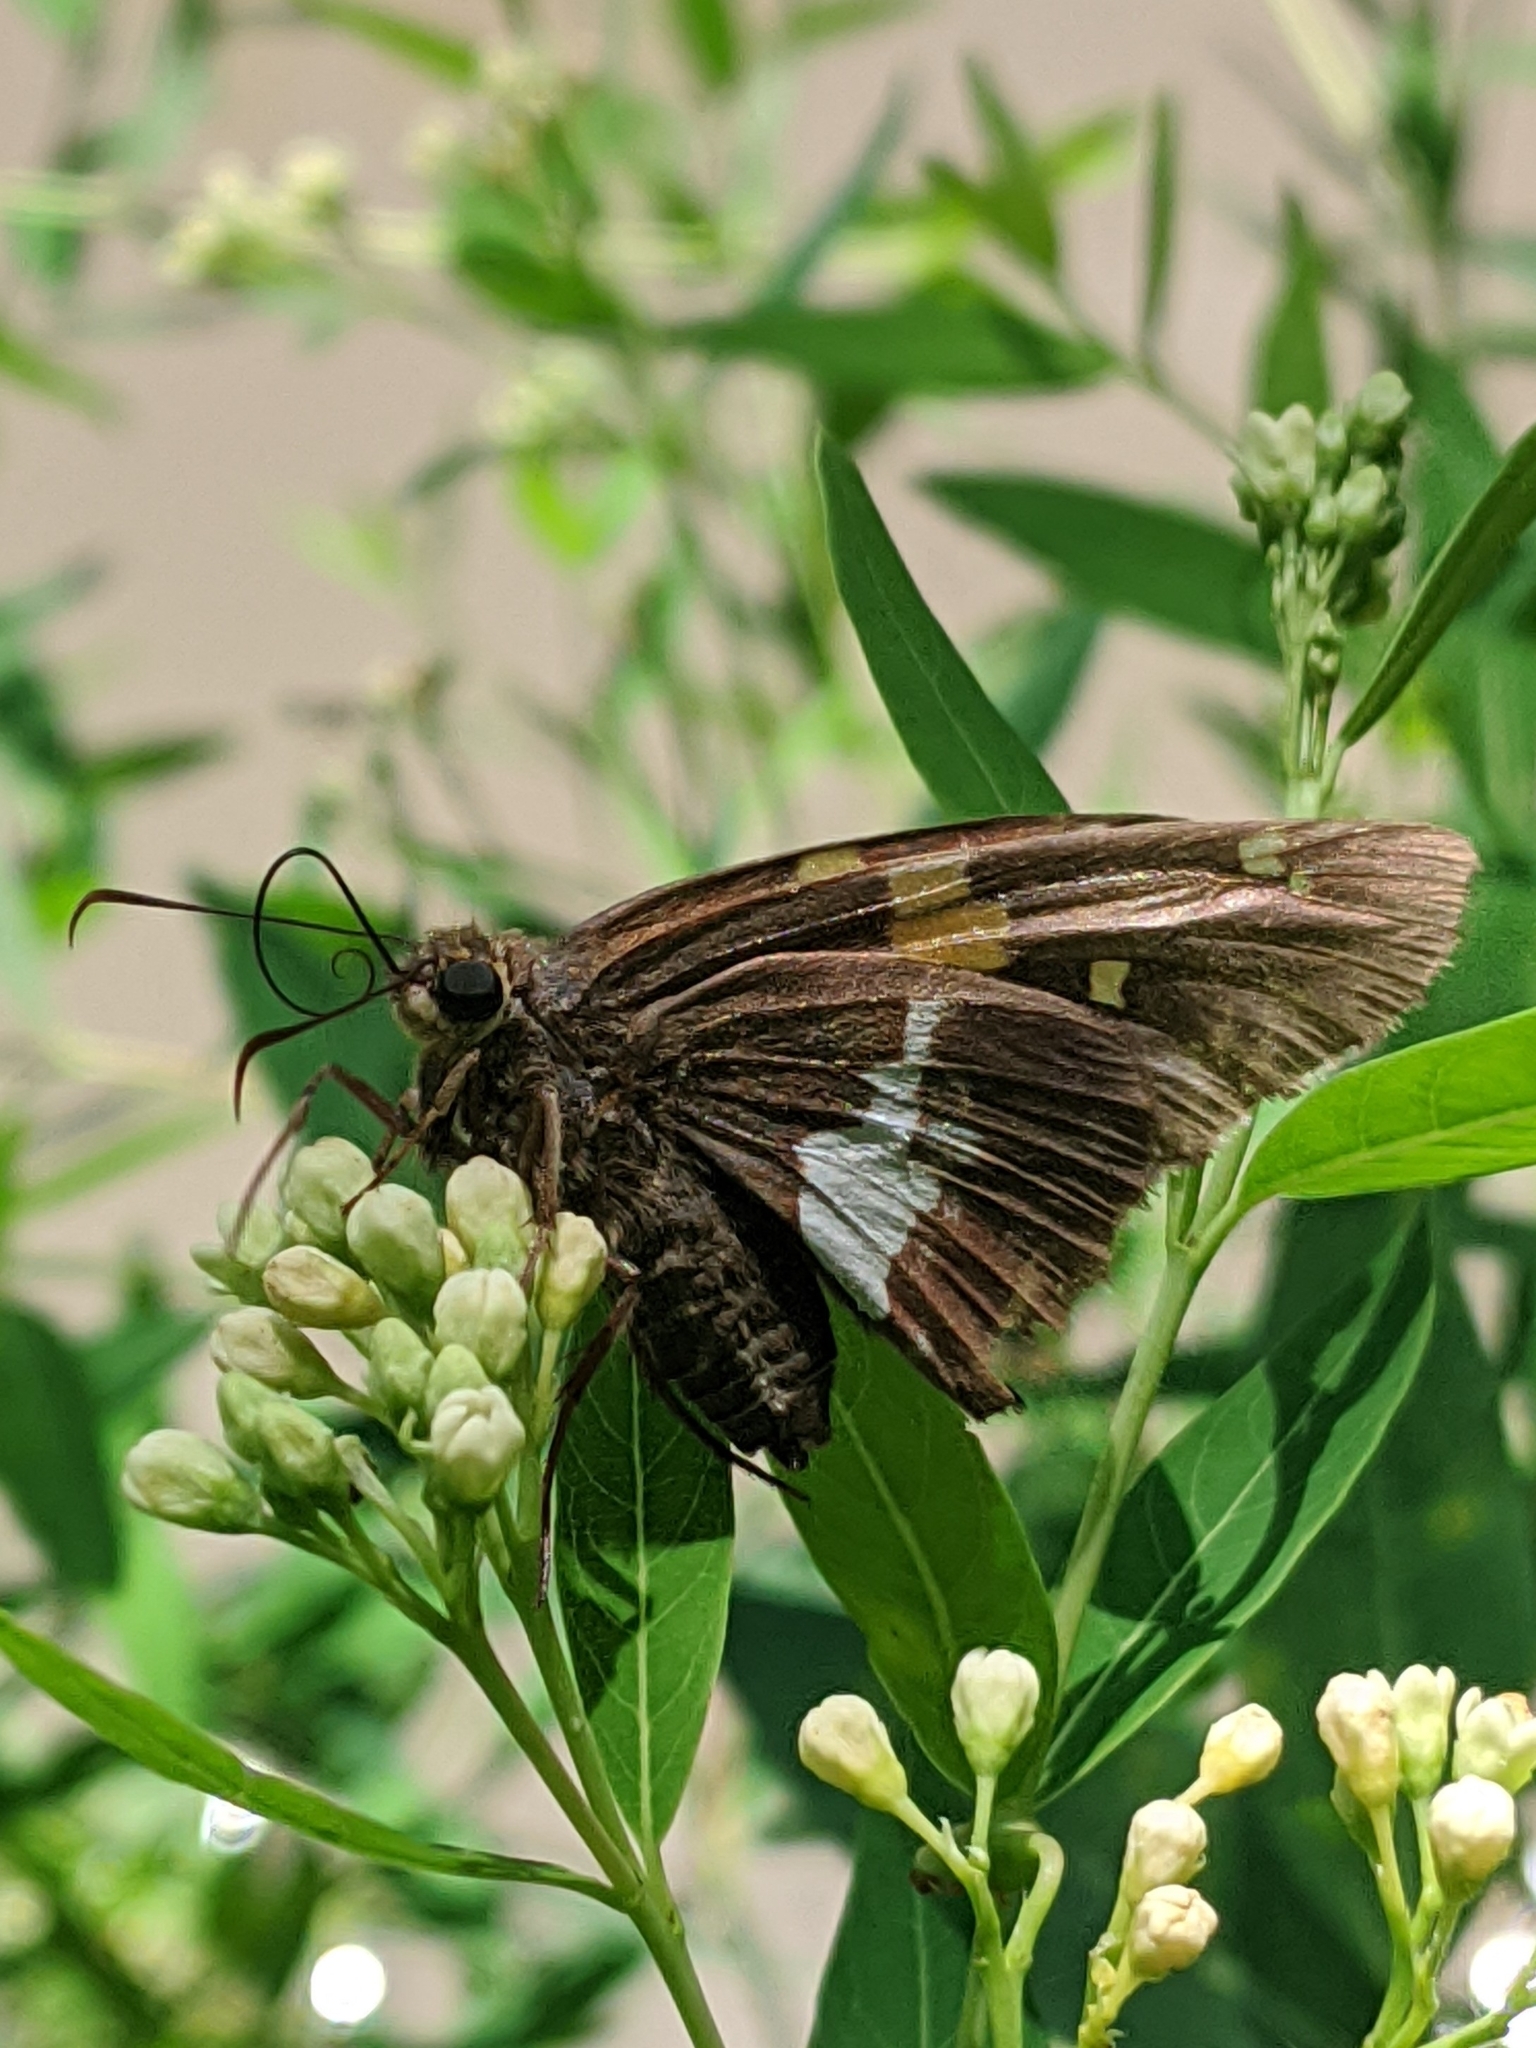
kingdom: Animalia
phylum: Arthropoda
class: Insecta
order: Lepidoptera
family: Hesperiidae
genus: Epargyreus
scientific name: Epargyreus clarus
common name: Silver-spotted skipper
